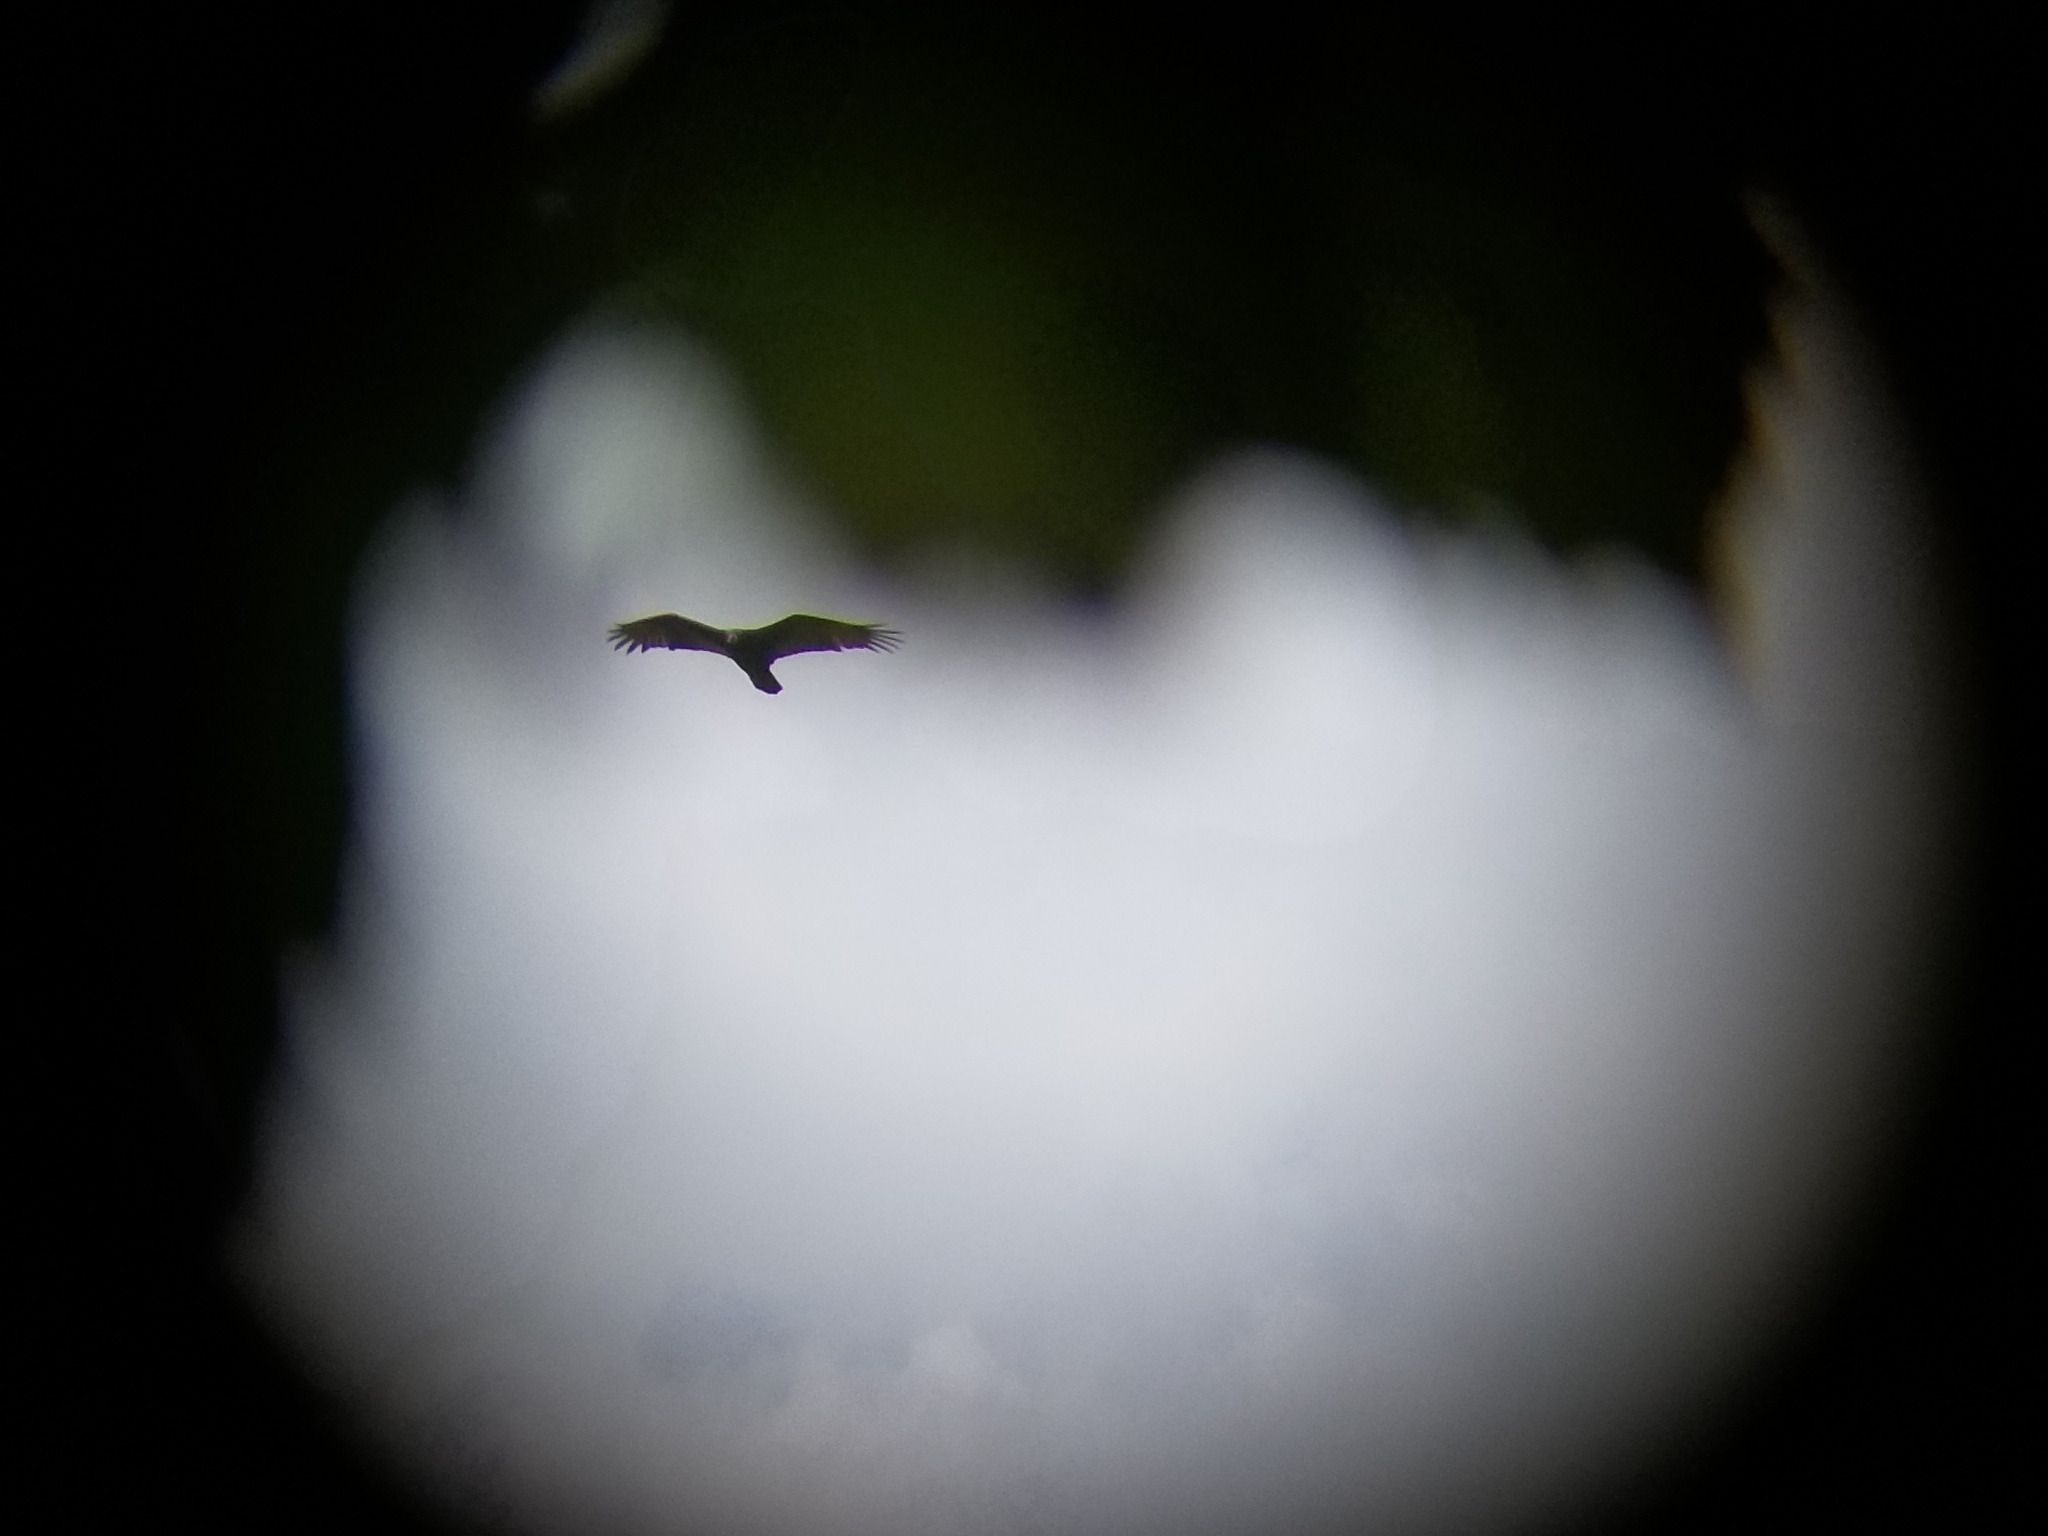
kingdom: Animalia
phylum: Chordata
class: Aves
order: Accipitriformes
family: Cathartidae
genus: Cathartes
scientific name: Cathartes aura
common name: Turkey vulture
